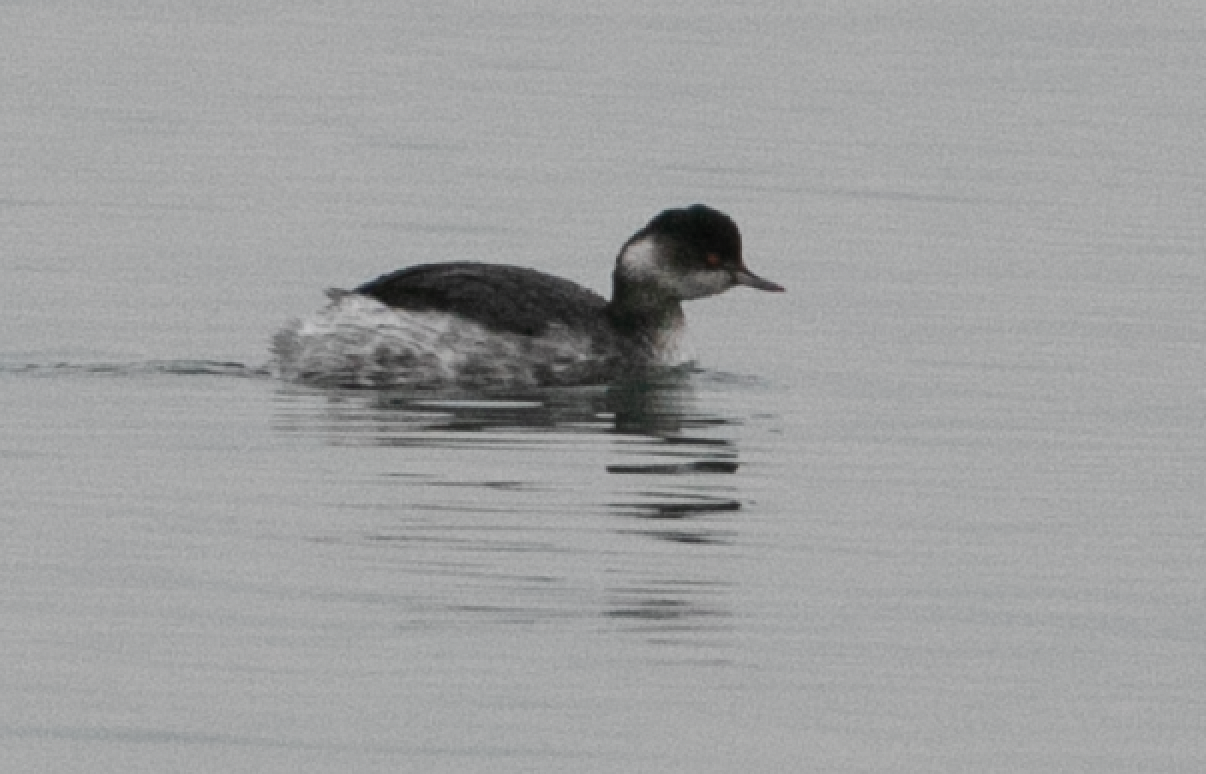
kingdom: Animalia
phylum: Chordata
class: Aves
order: Podicipediformes
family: Podicipedidae
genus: Podiceps
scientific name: Podiceps nigricollis
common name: Black-necked grebe
